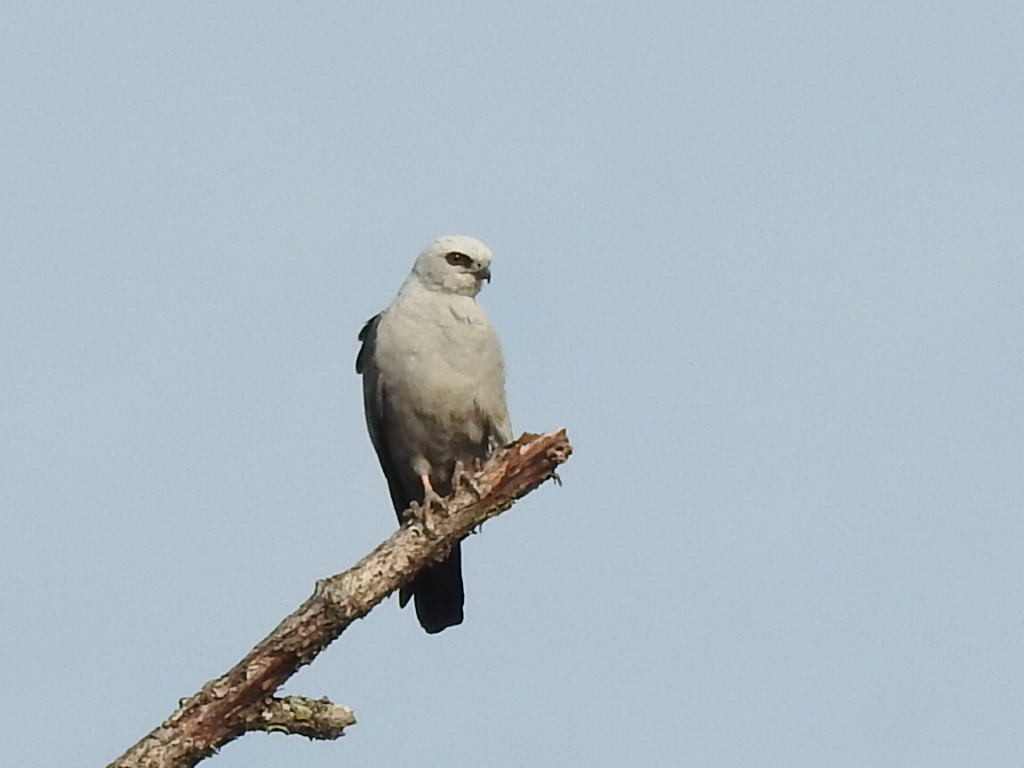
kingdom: Animalia
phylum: Chordata
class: Aves
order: Accipitriformes
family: Accipitridae
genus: Ictinia
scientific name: Ictinia mississippiensis
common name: Mississippi kite
